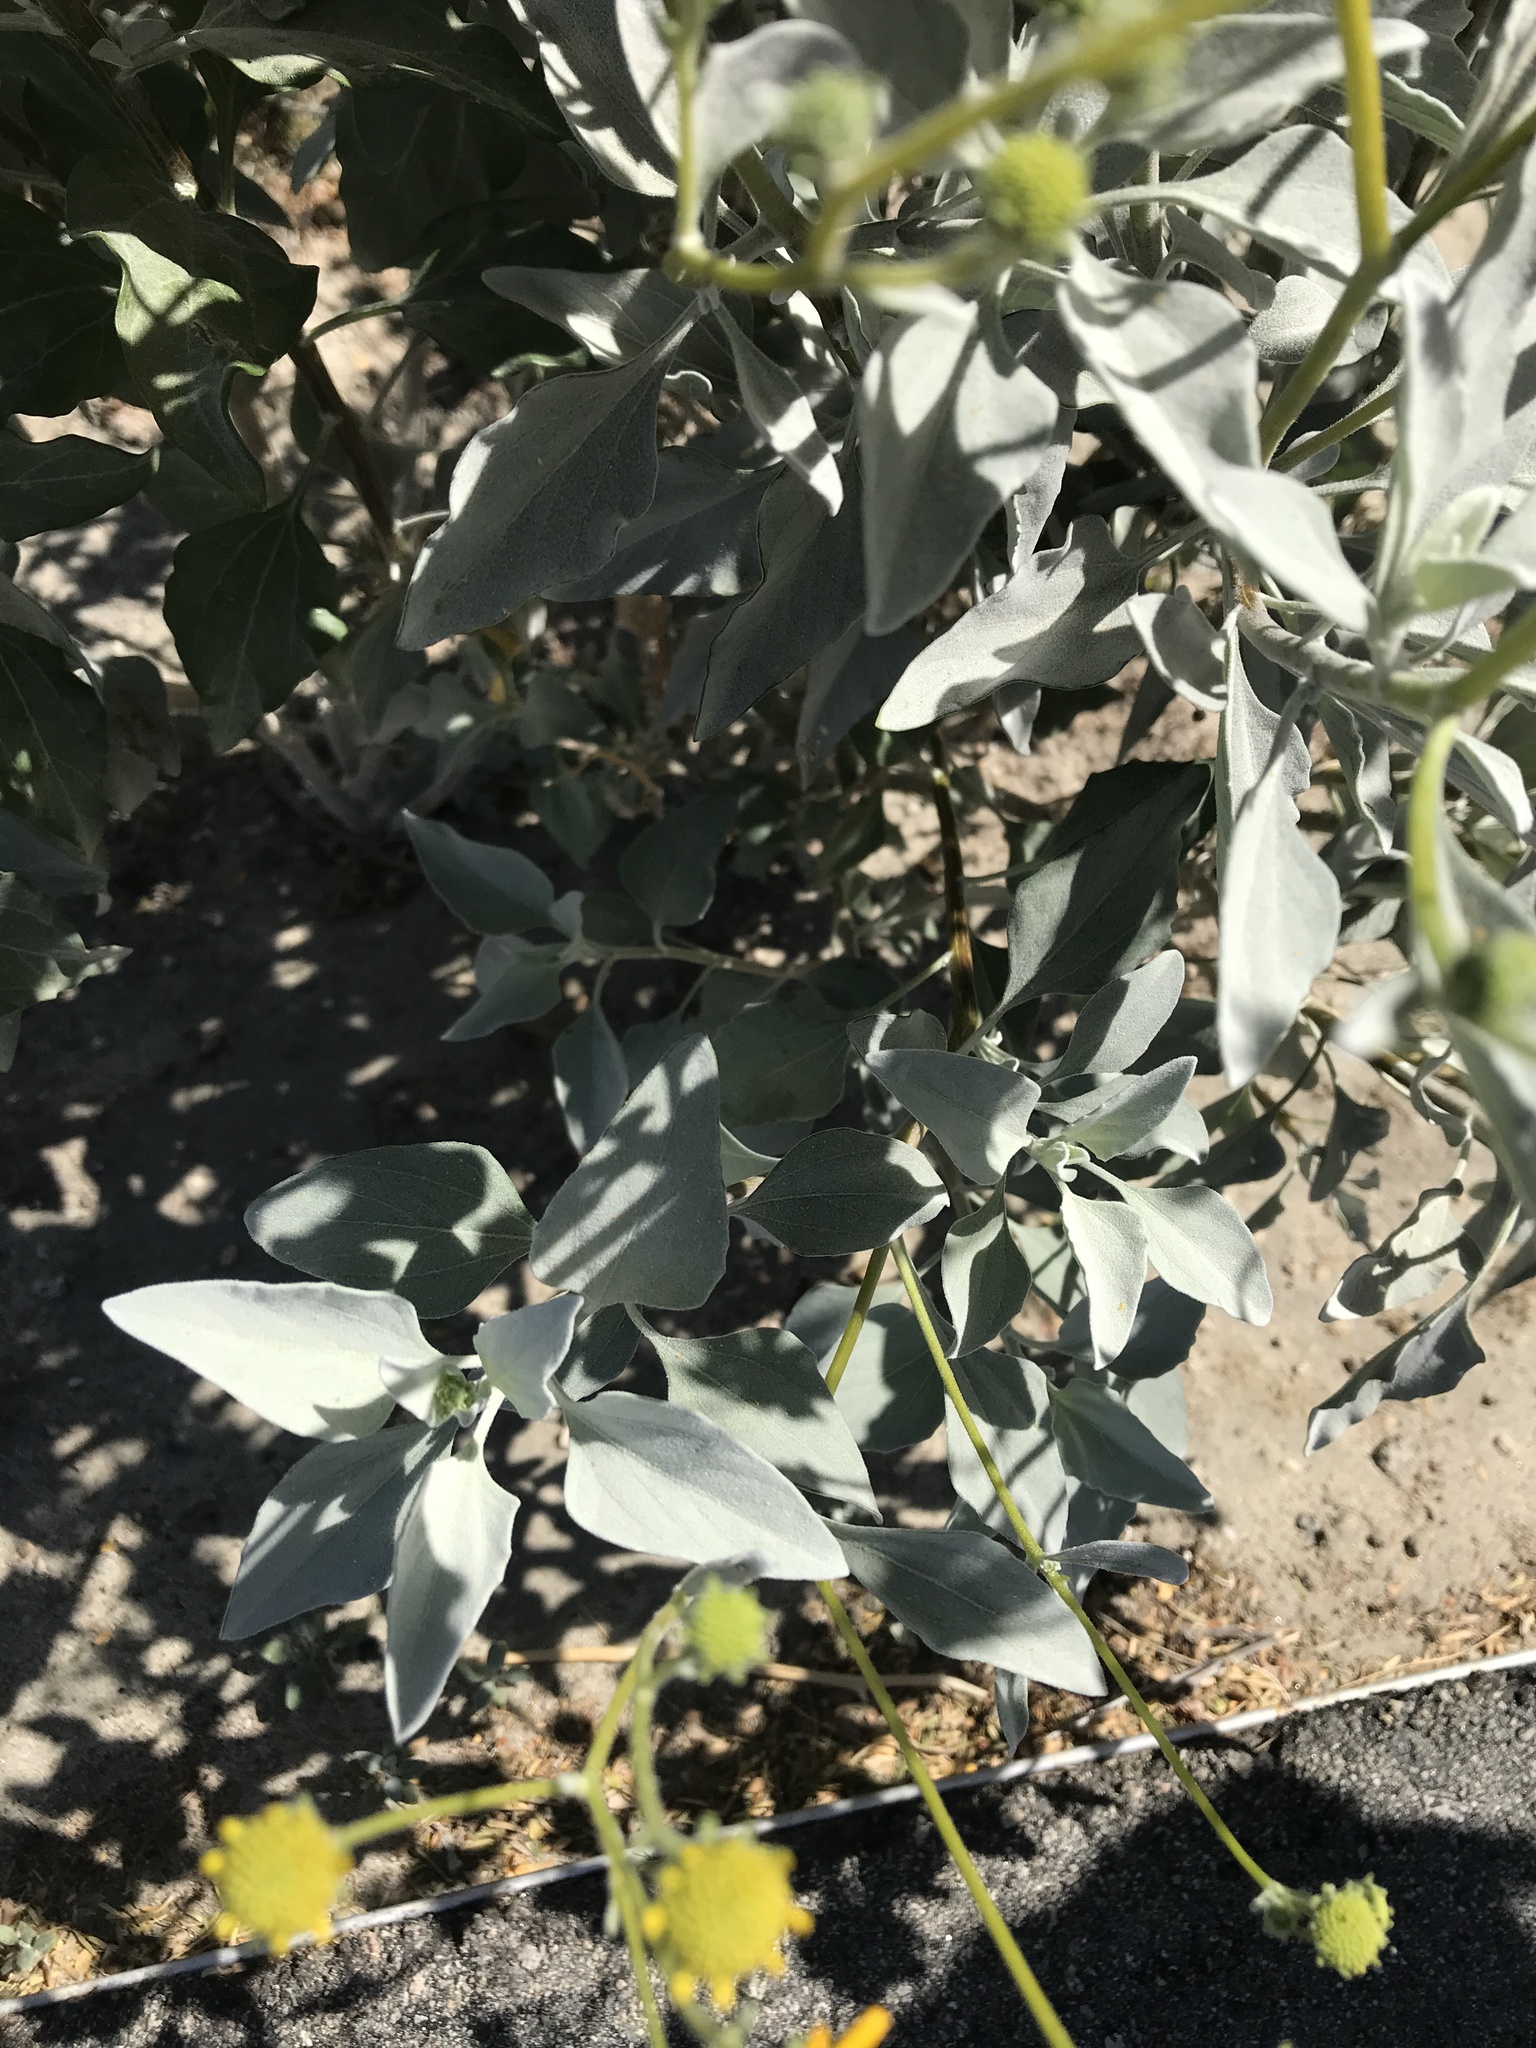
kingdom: Plantae
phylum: Tracheophyta
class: Magnoliopsida
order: Asterales
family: Asteraceae
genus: Encelia
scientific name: Encelia farinosa
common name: Brittlebush
